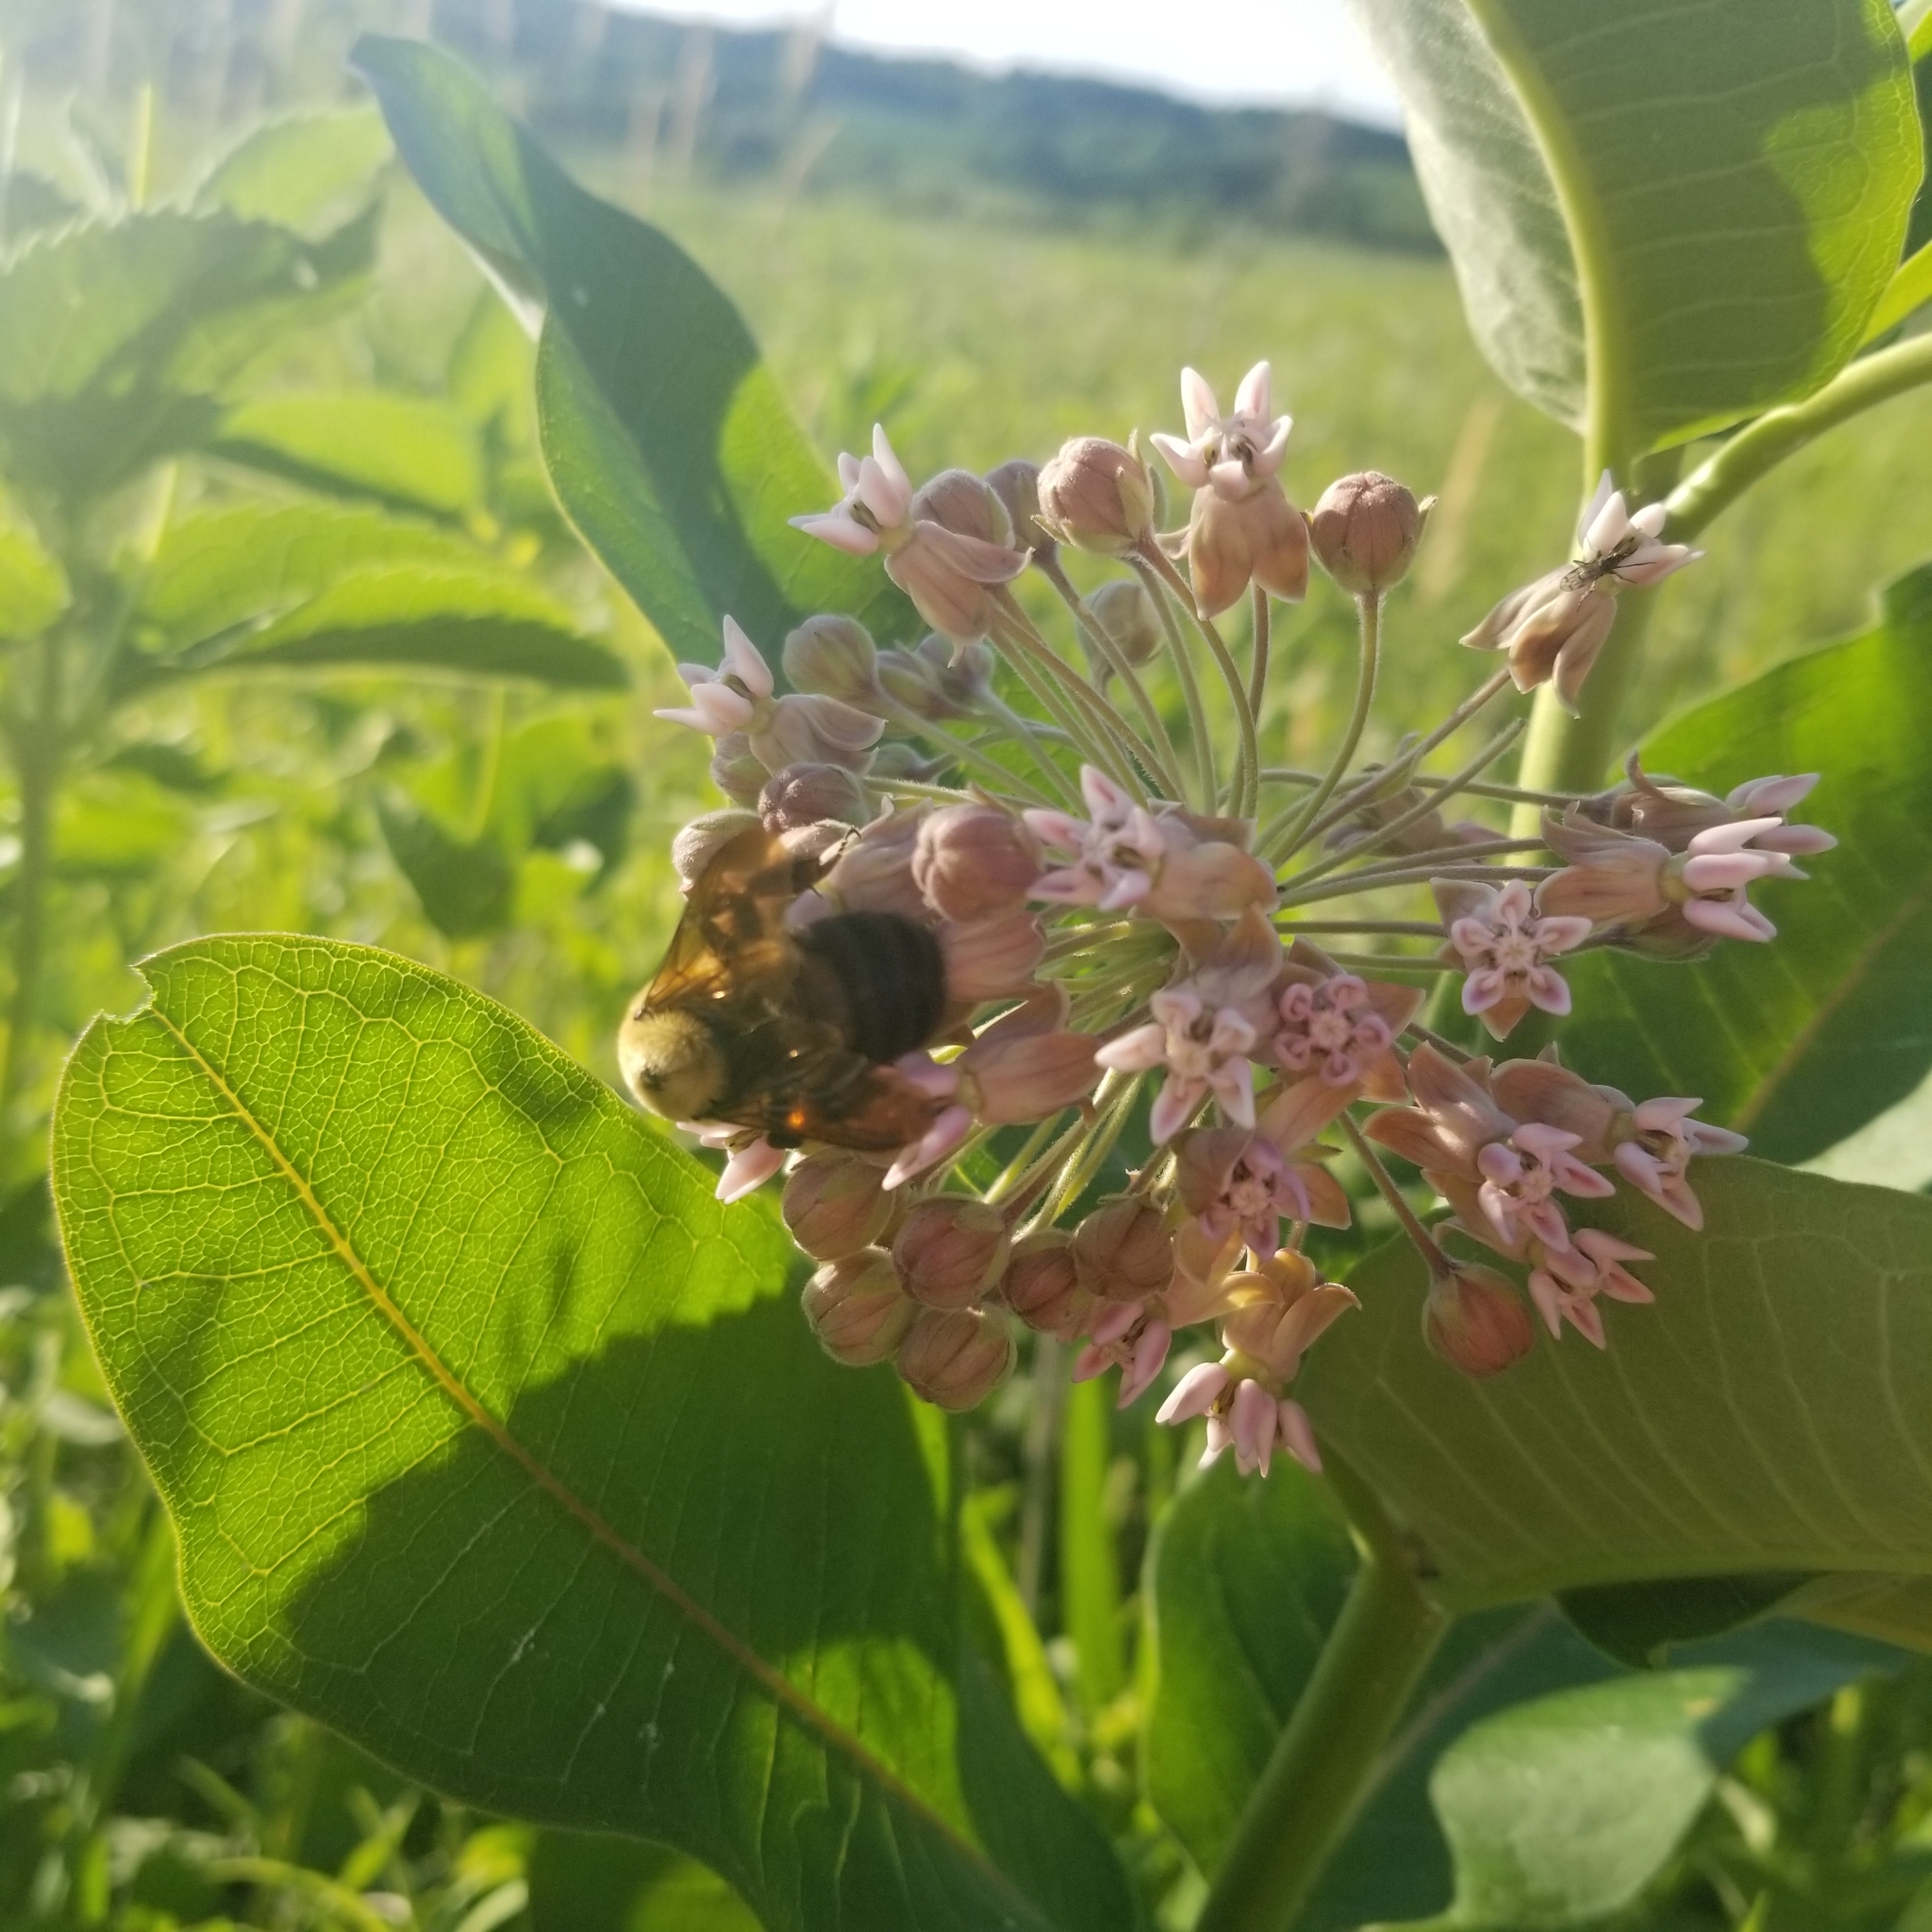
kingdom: Animalia
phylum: Arthropoda
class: Insecta
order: Hymenoptera
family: Apidae
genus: Bombus
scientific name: Bombus griseocollis
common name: Brown-belted bumble bee
